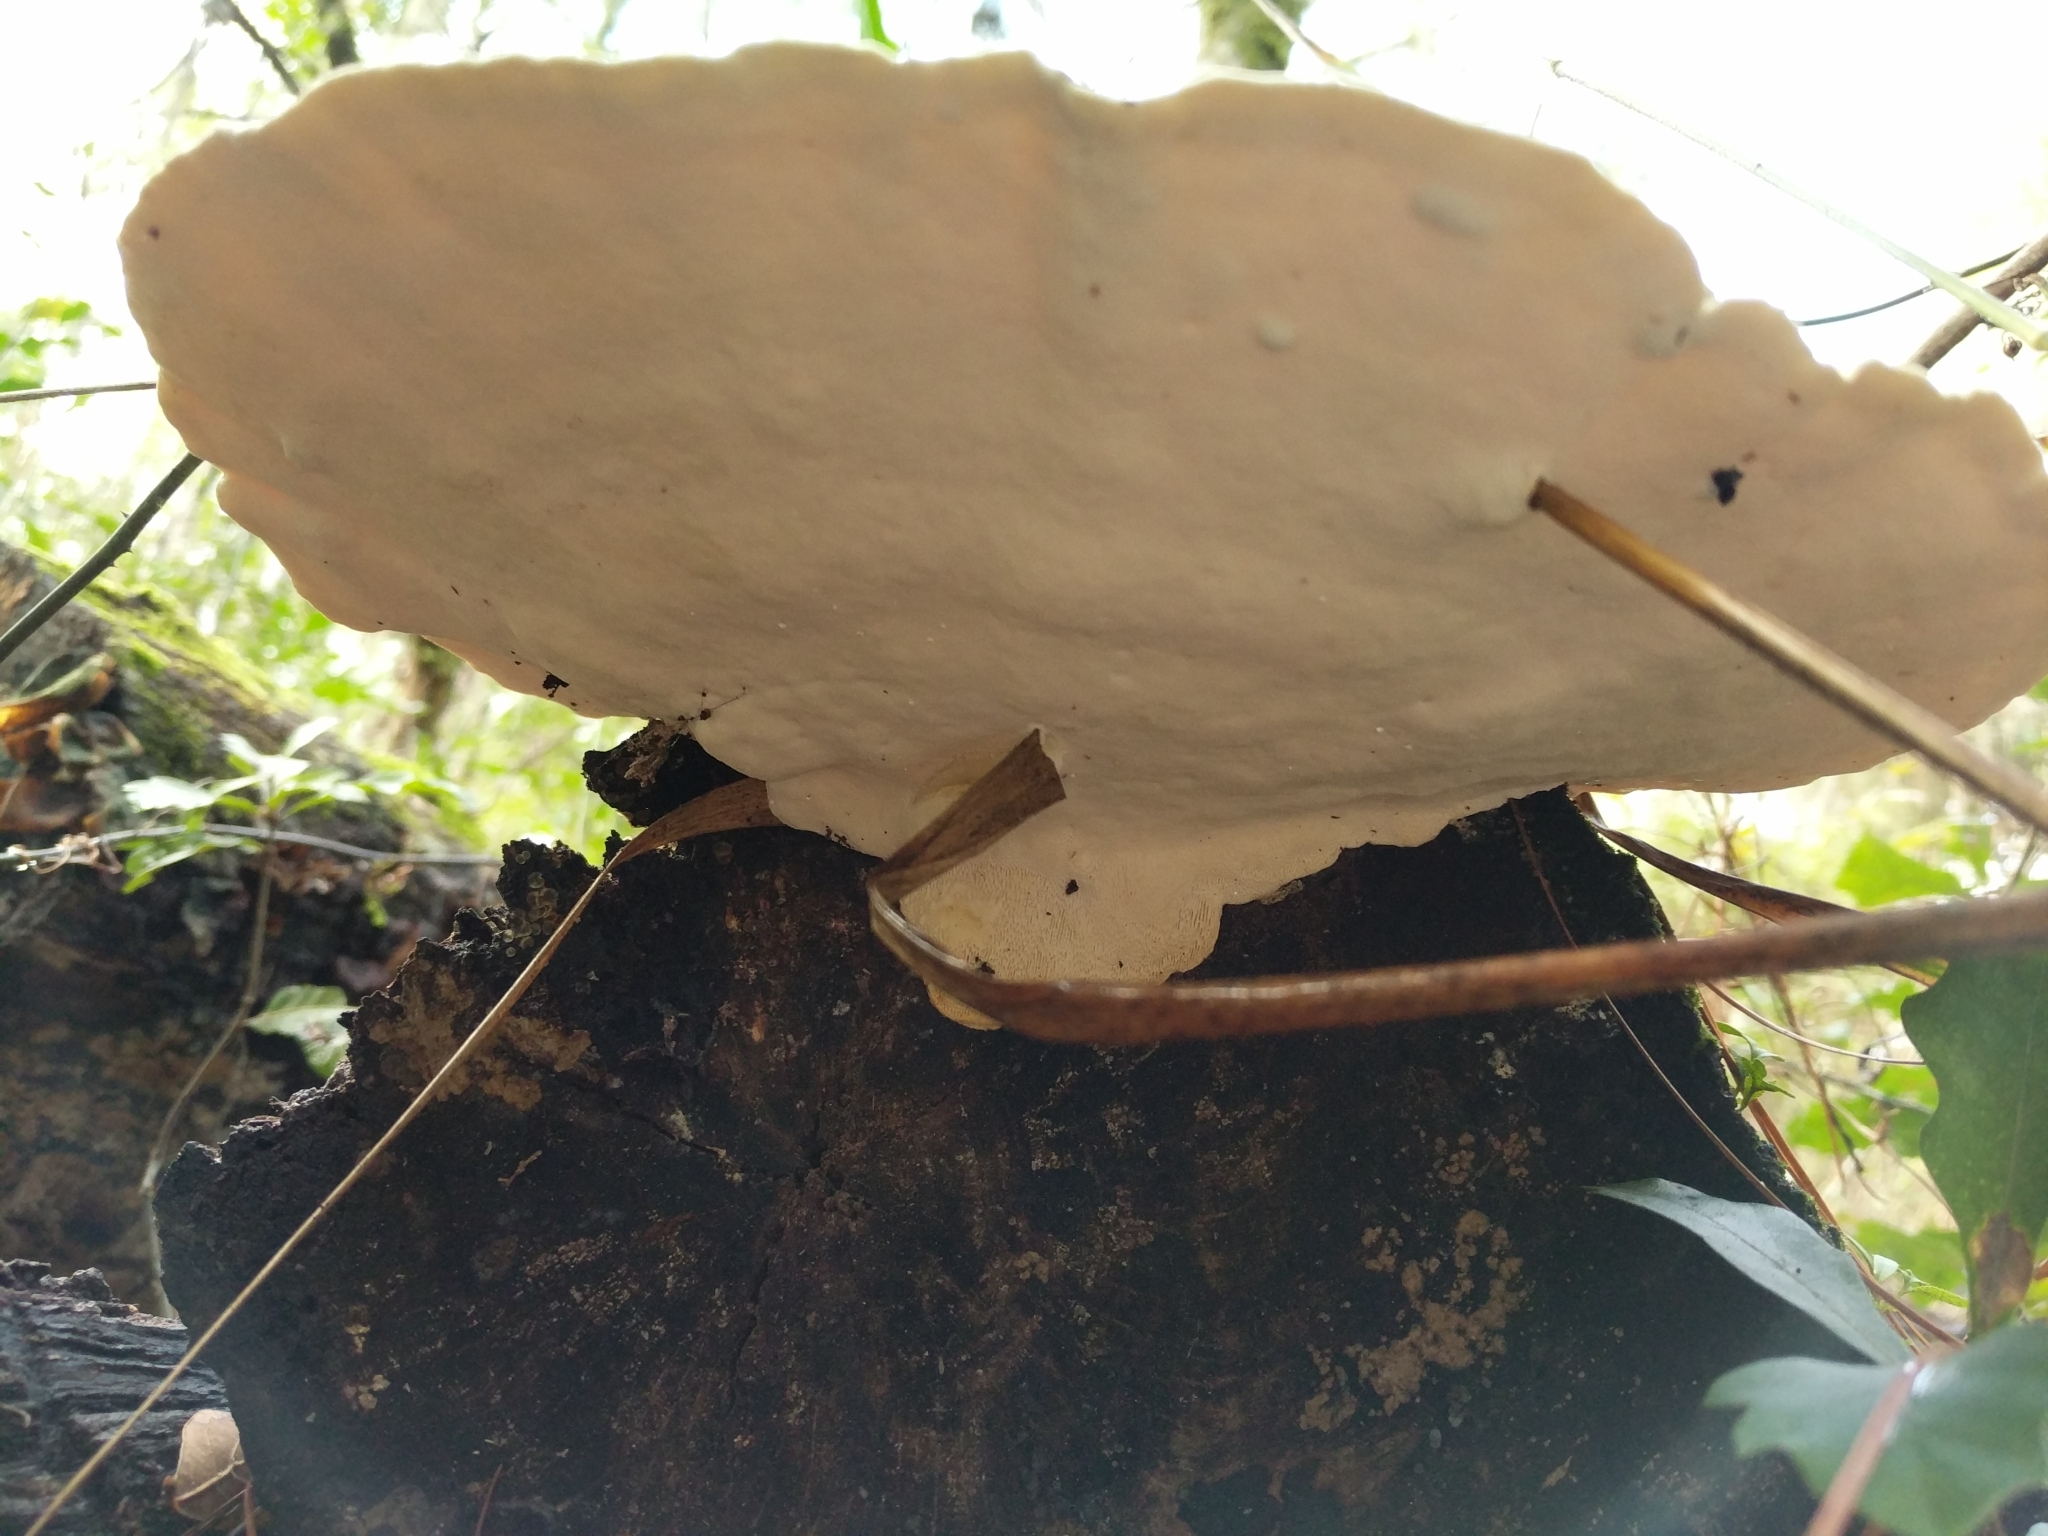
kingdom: Fungi
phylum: Basidiomycota
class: Agaricomycetes
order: Polyporales
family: Polyporaceae
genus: Trametes
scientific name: Trametes lactinea
